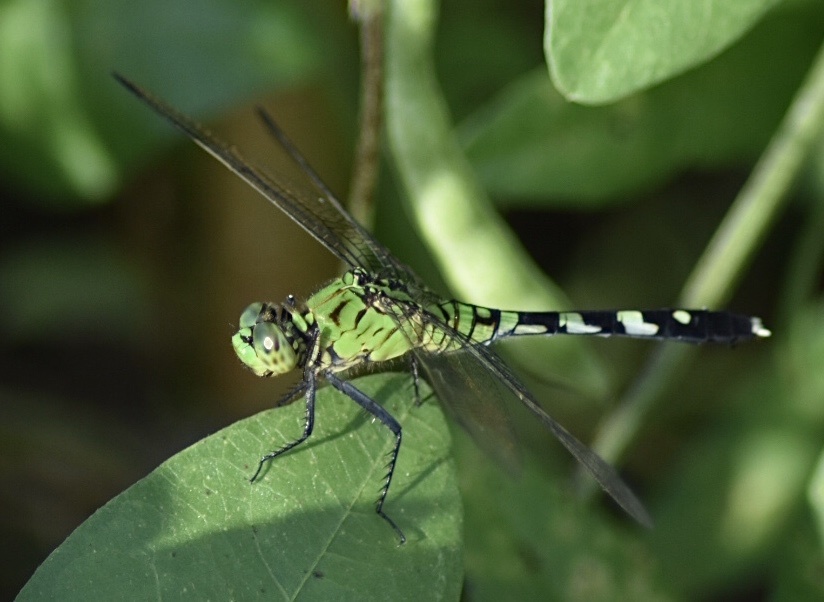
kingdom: Animalia
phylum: Arthropoda
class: Insecta
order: Odonata
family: Libellulidae
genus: Erythemis
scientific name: Erythemis simplicicollis
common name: Eastern pondhawk
